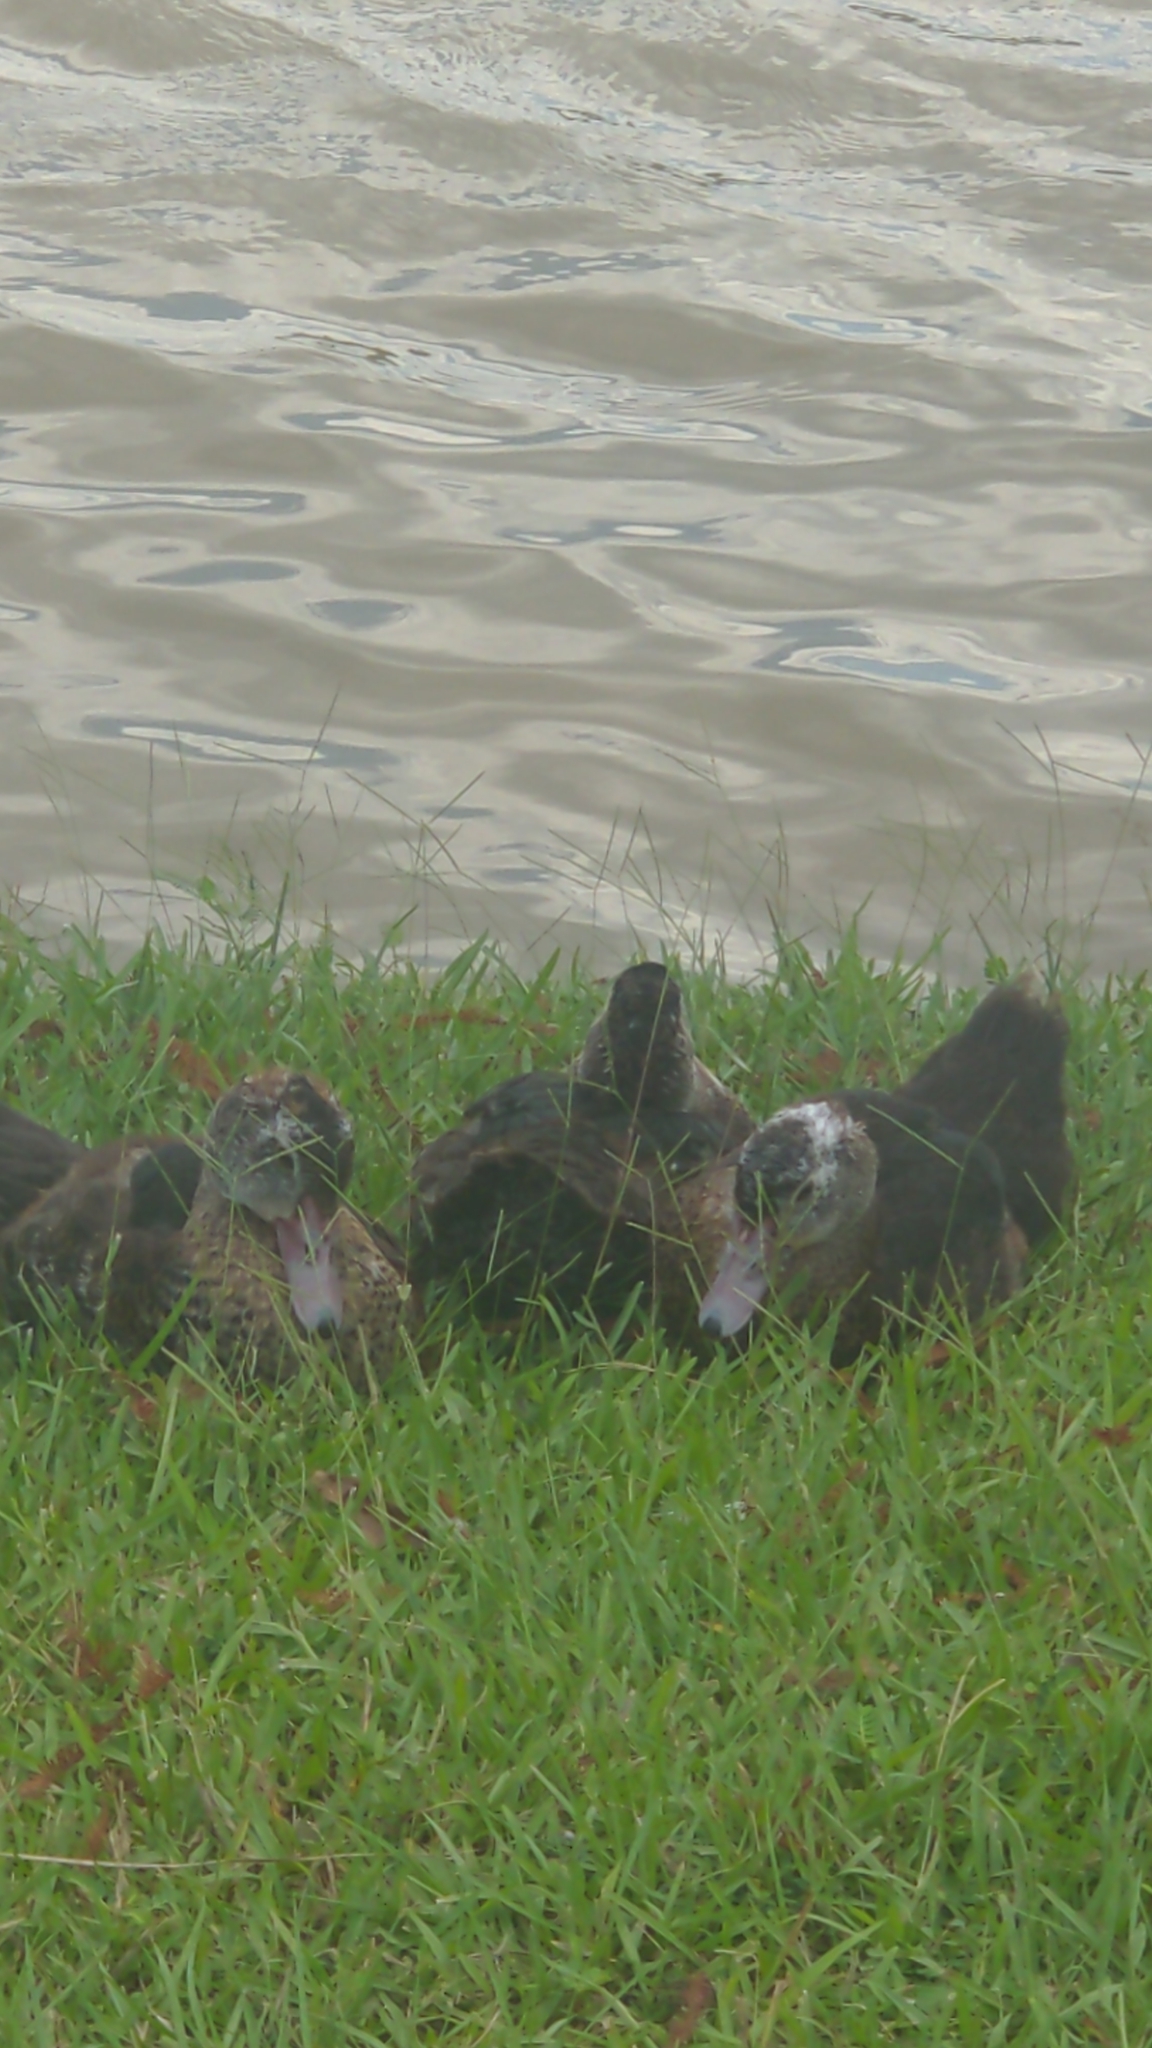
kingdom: Animalia
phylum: Chordata
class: Aves
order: Anseriformes
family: Anatidae
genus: Cairina
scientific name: Cairina moschata
